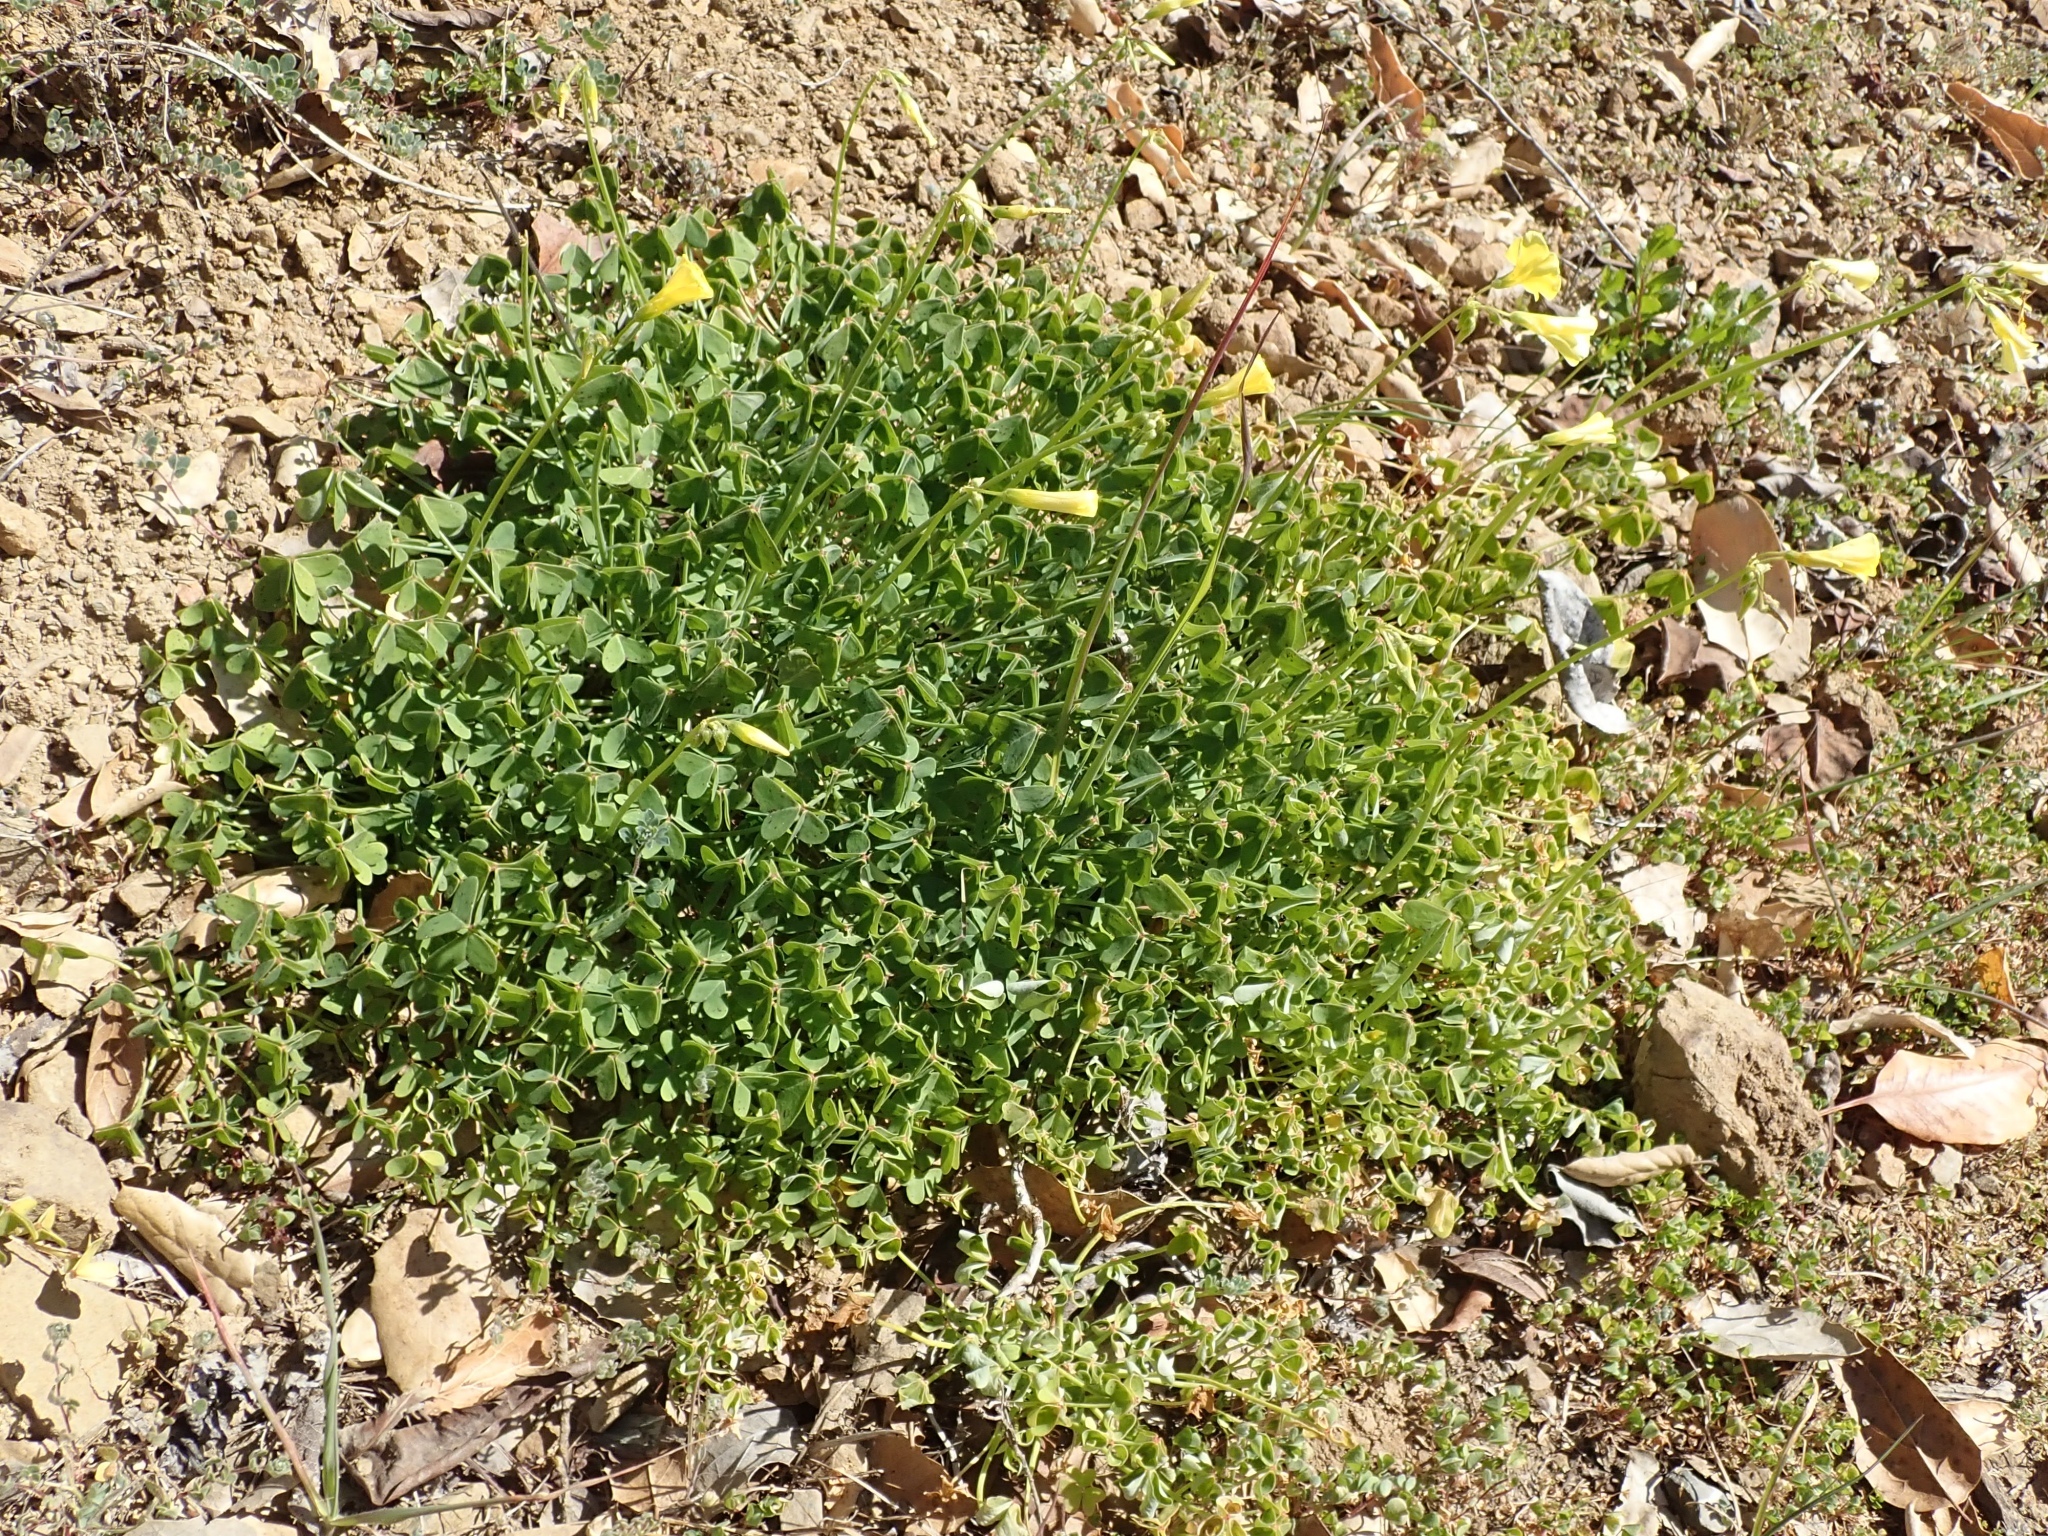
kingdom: Plantae
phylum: Tracheophyta
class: Magnoliopsida
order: Oxalidales
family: Oxalidaceae
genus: Oxalis
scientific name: Oxalis pes-caprae
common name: Bermuda-buttercup
